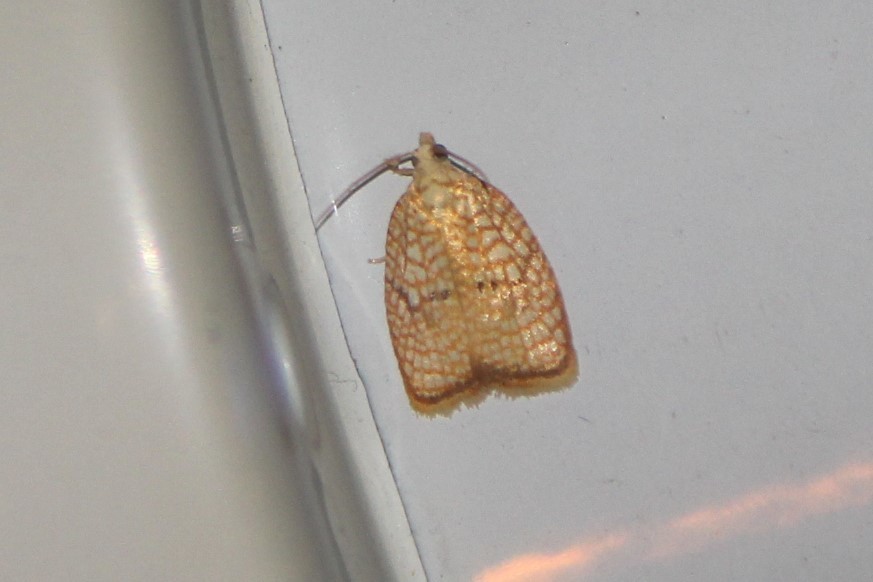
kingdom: Animalia
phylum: Arthropoda
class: Insecta
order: Lepidoptera
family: Tortricidae
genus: Acleris
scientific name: Acleris forsskaleana
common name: Maple button
